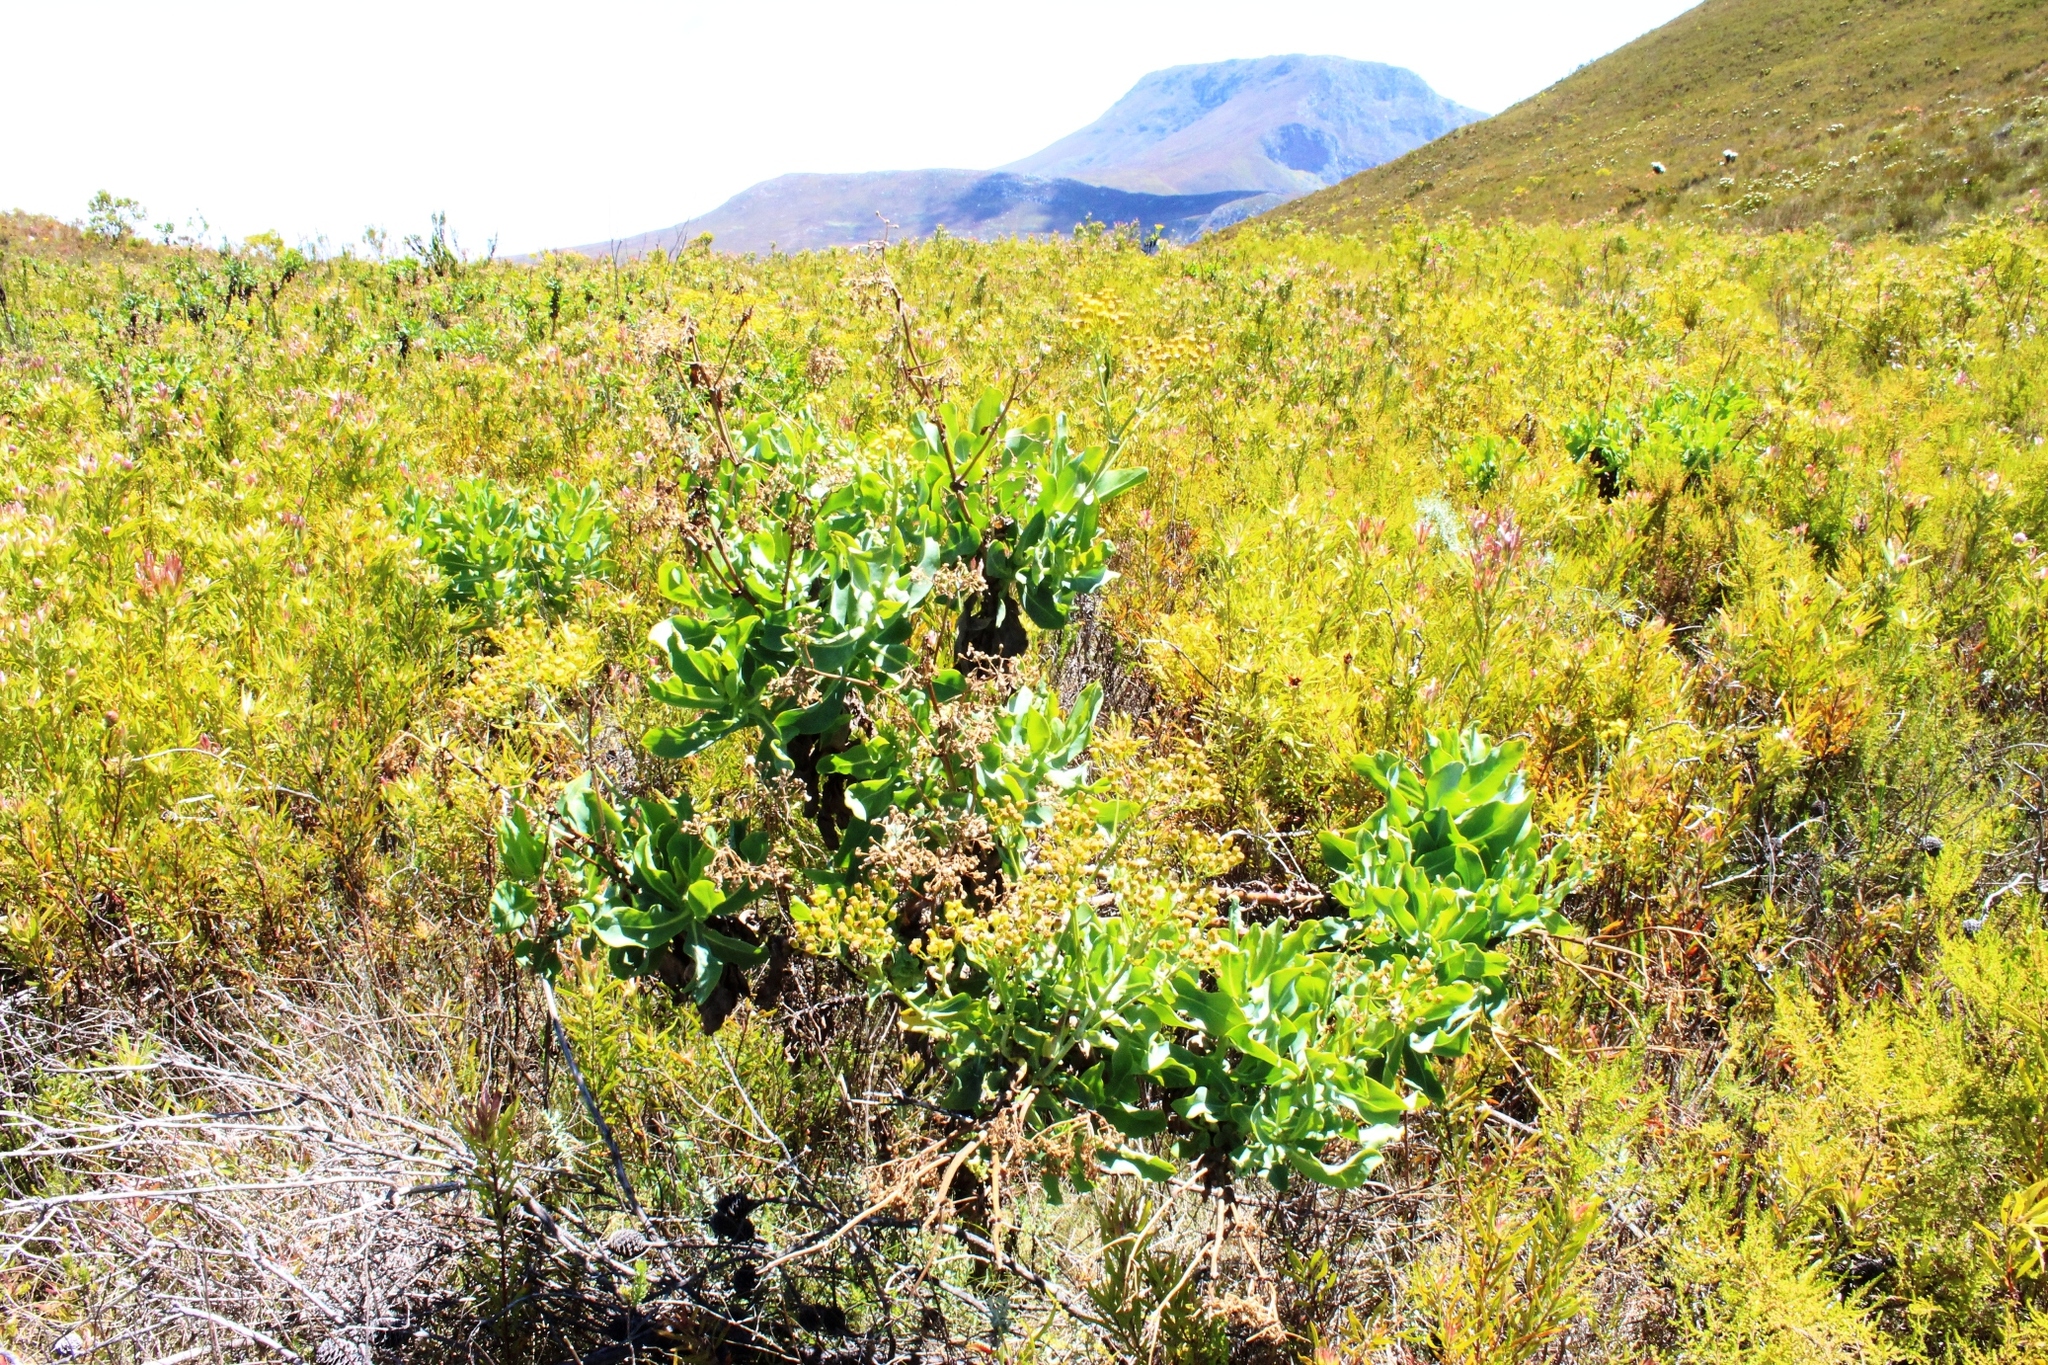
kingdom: Plantae
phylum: Tracheophyta
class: Magnoliopsida
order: Asterales
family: Asteraceae
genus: Othonna
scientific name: Othonna parviflora
